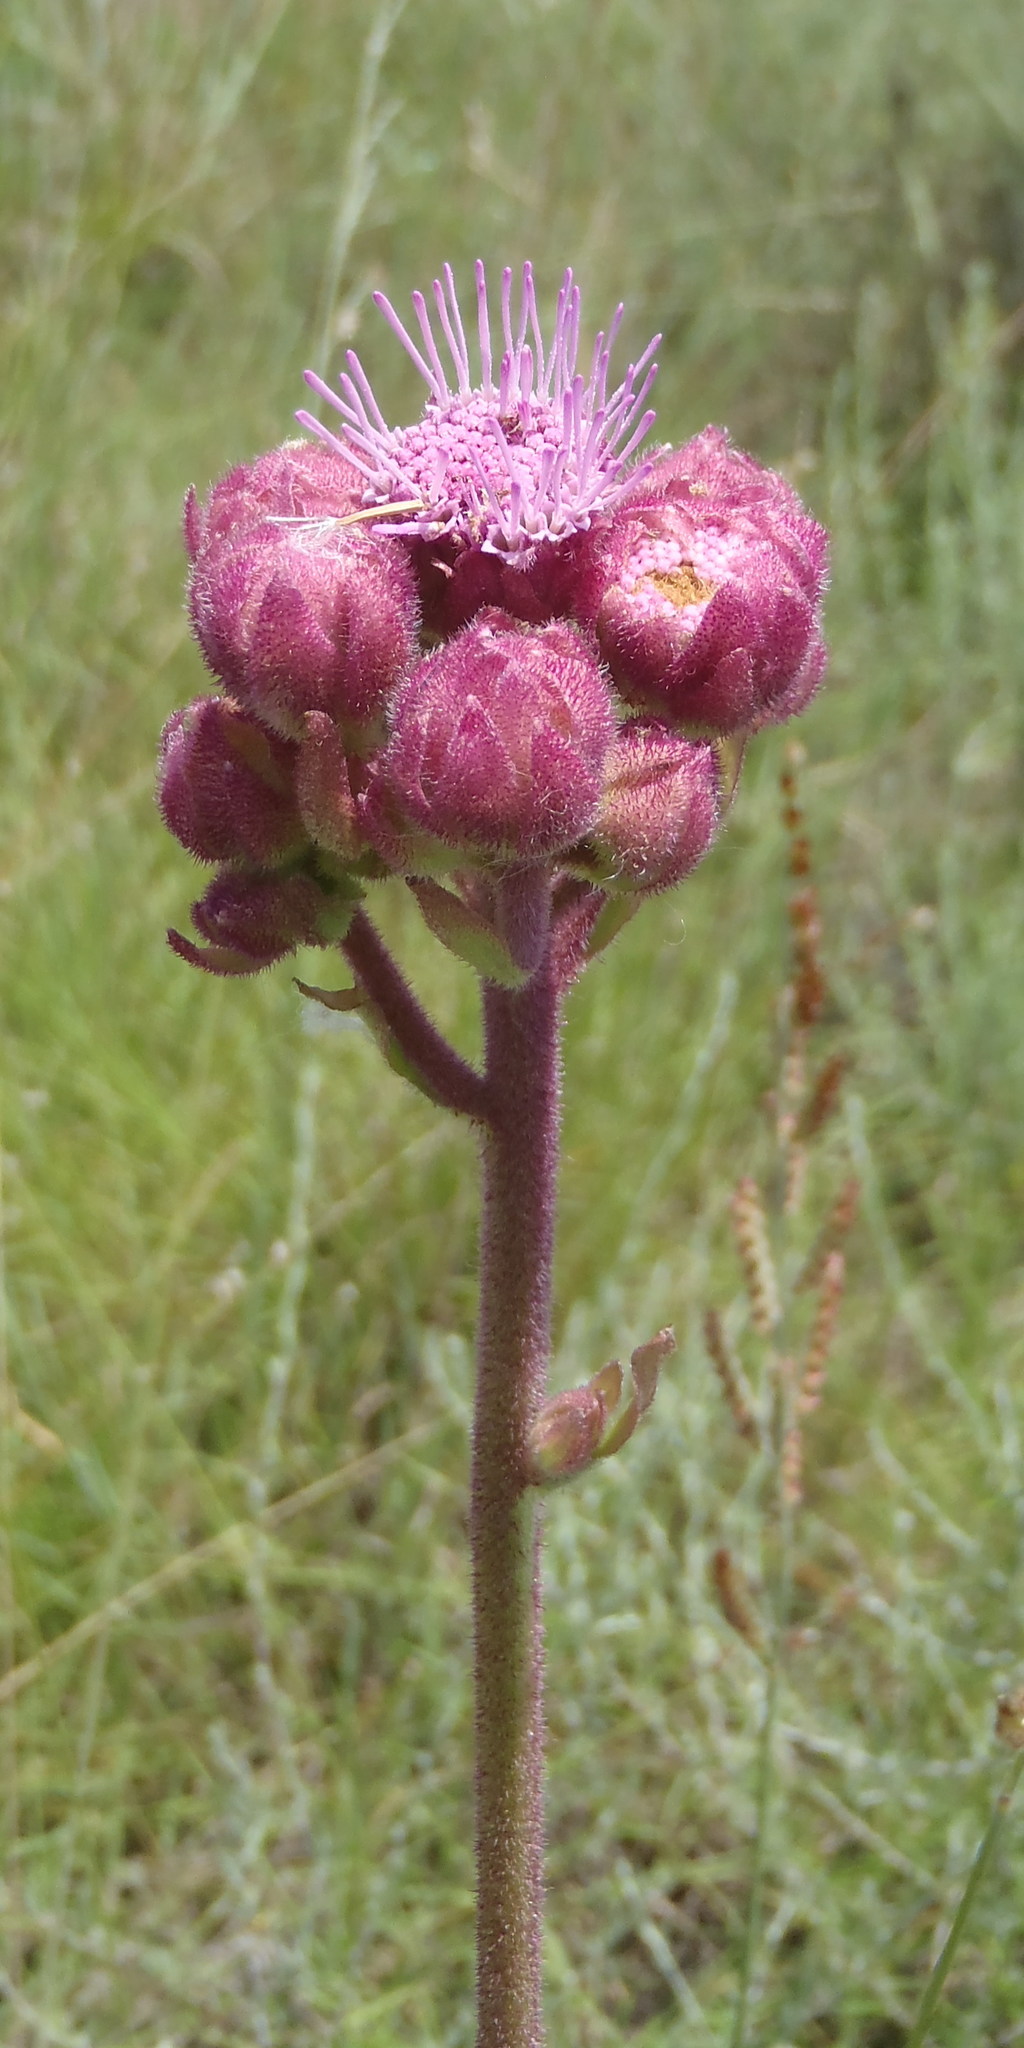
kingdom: Plantae
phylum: Tracheophyta
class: Magnoliopsida
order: Asterales
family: Asteraceae
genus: Campuloclinium
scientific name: Campuloclinium macrocephalum
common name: Pompomweed
